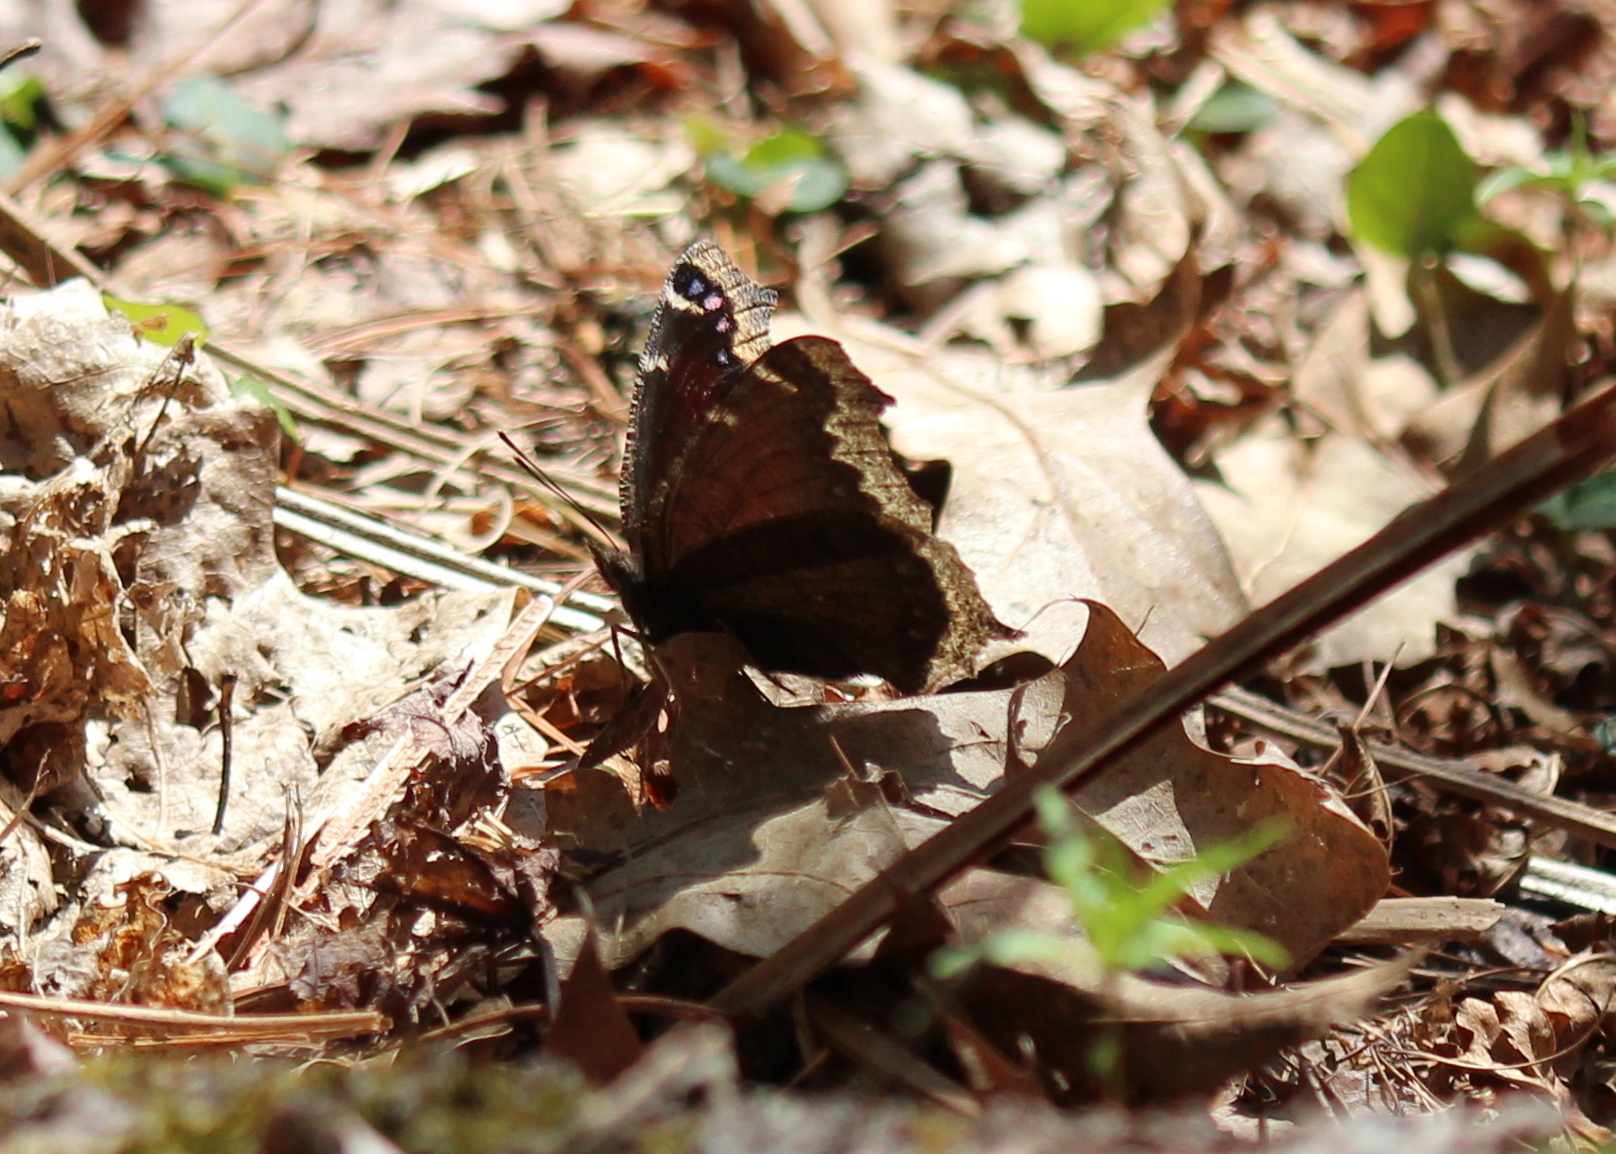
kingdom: Animalia
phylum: Arthropoda
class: Insecta
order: Lepidoptera
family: Nymphalidae
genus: Nymphalis
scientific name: Nymphalis antiopa
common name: Camberwell beauty
